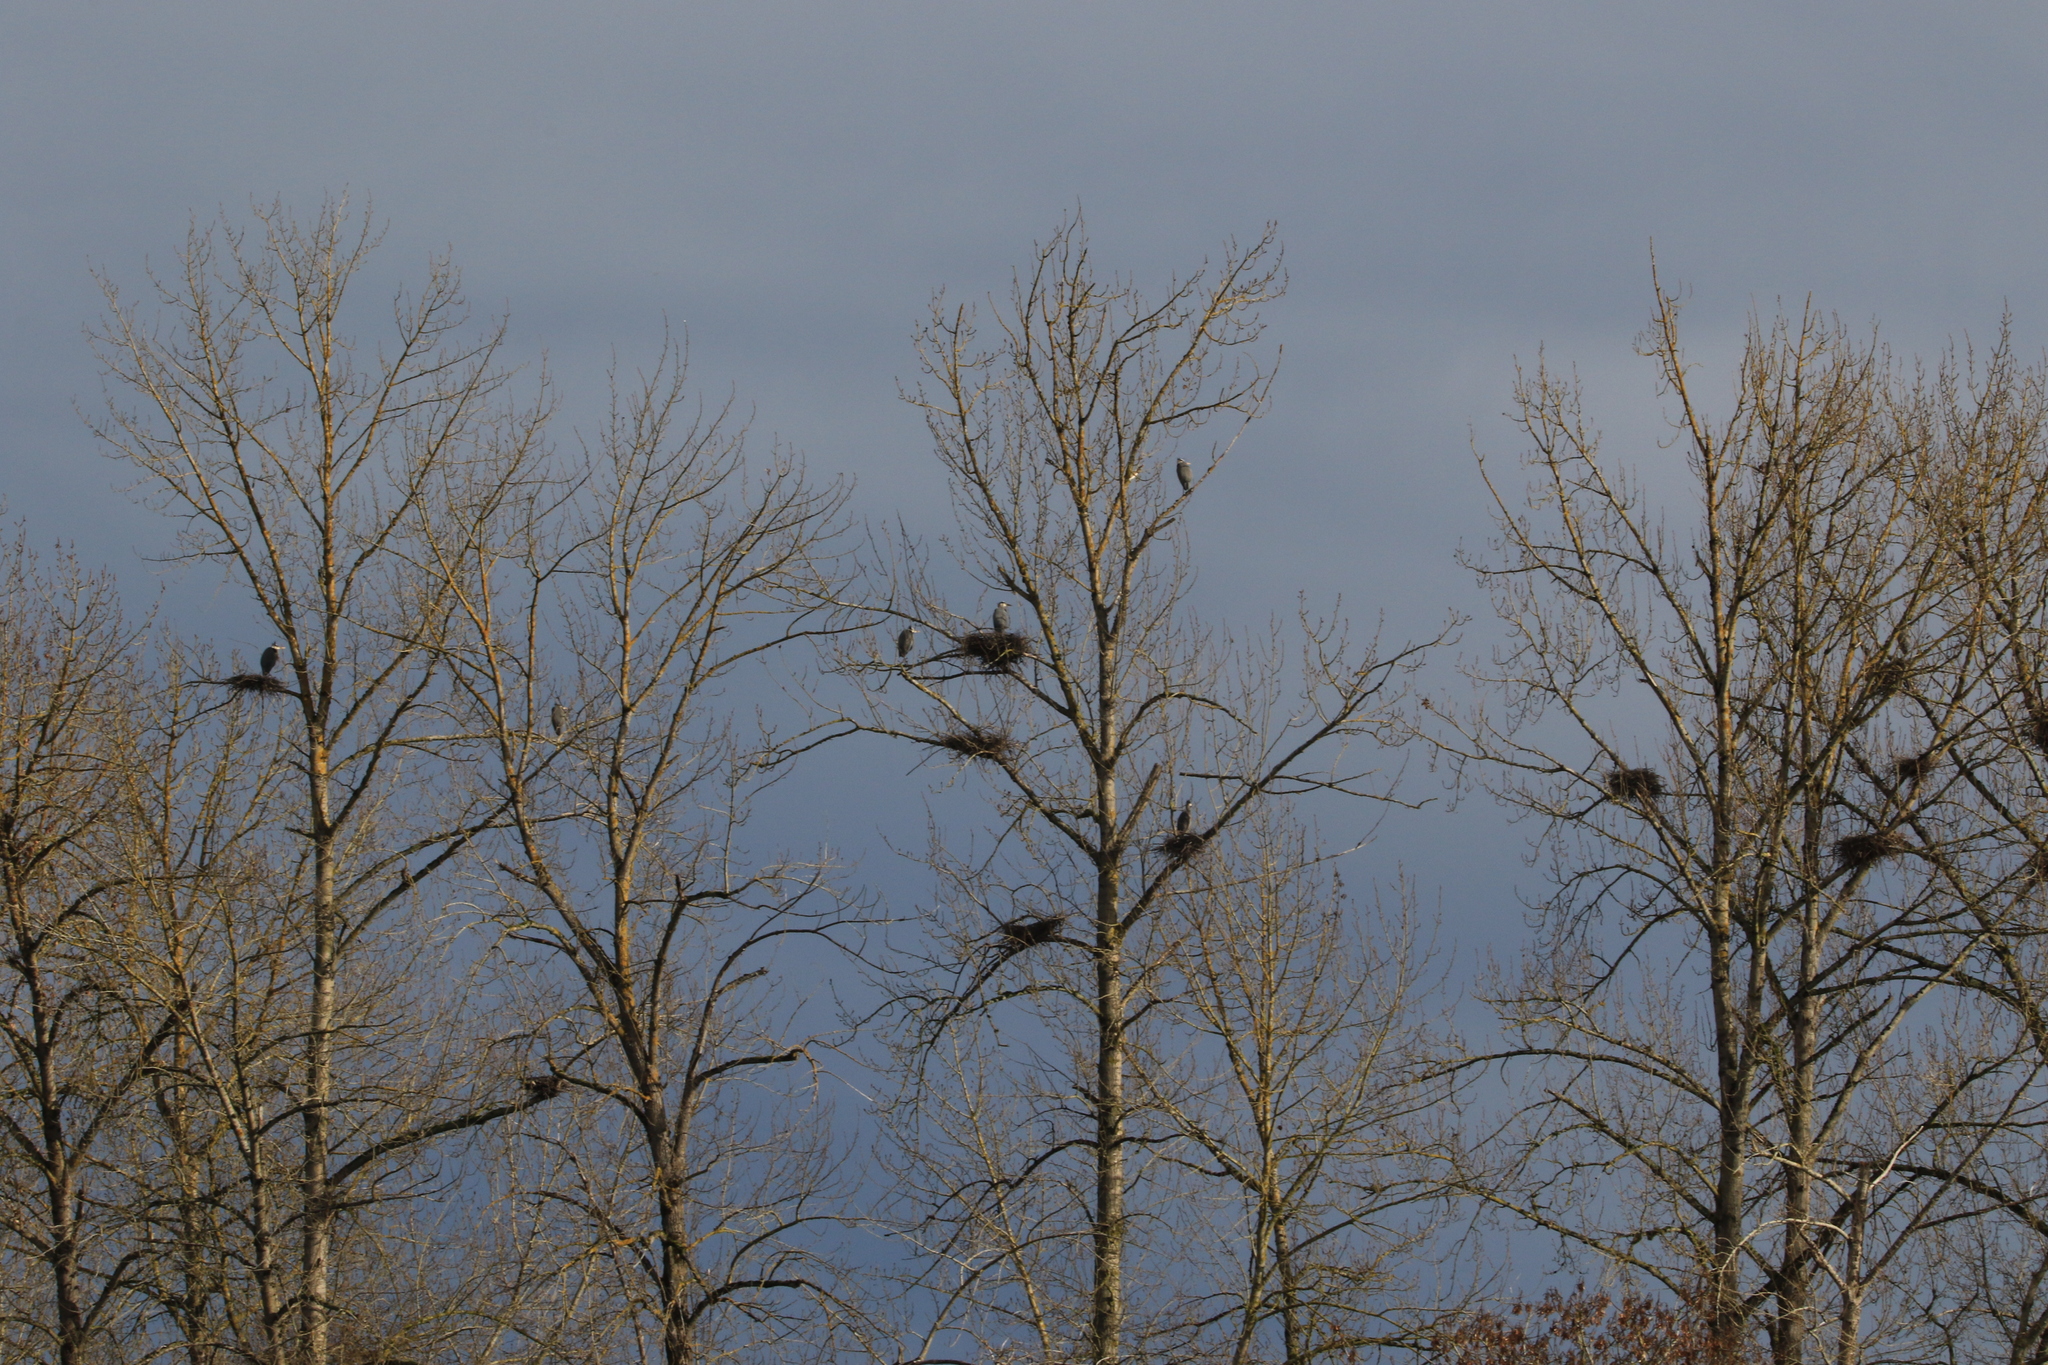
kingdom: Animalia
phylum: Chordata
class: Aves
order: Pelecaniformes
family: Ardeidae
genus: Ardea
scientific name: Ardea herodias
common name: Great blue heron
